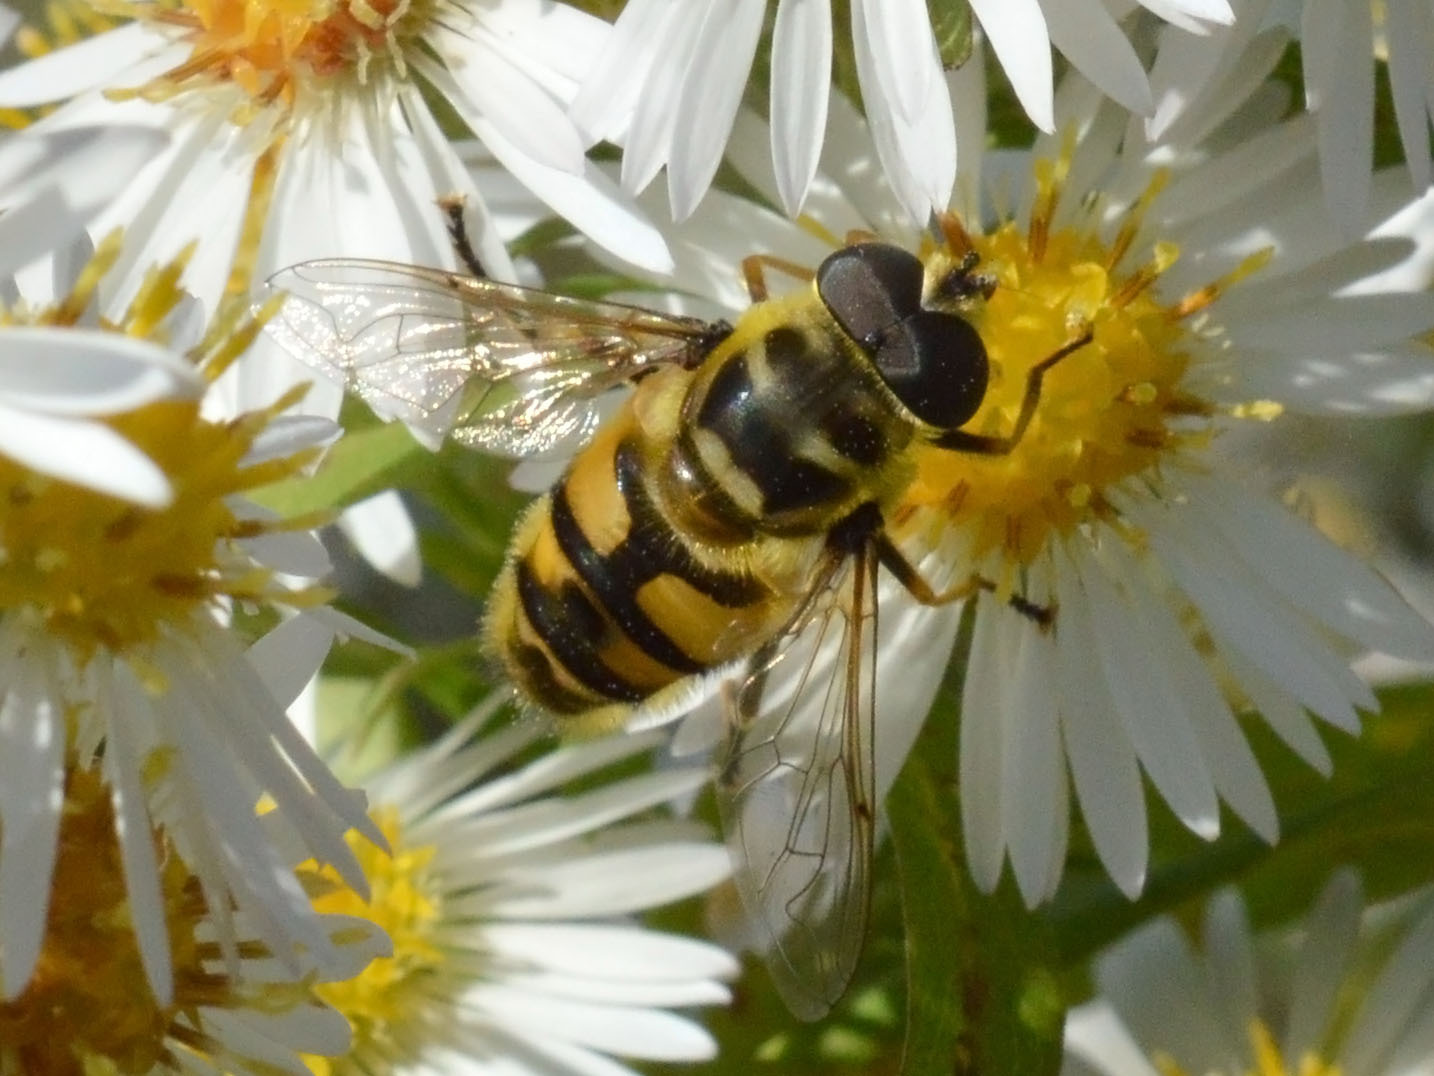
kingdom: Animalia
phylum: Arthropoda
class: Insecta
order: Diptera
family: Syrphidae
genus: Myathropa
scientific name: Myathropa florea
